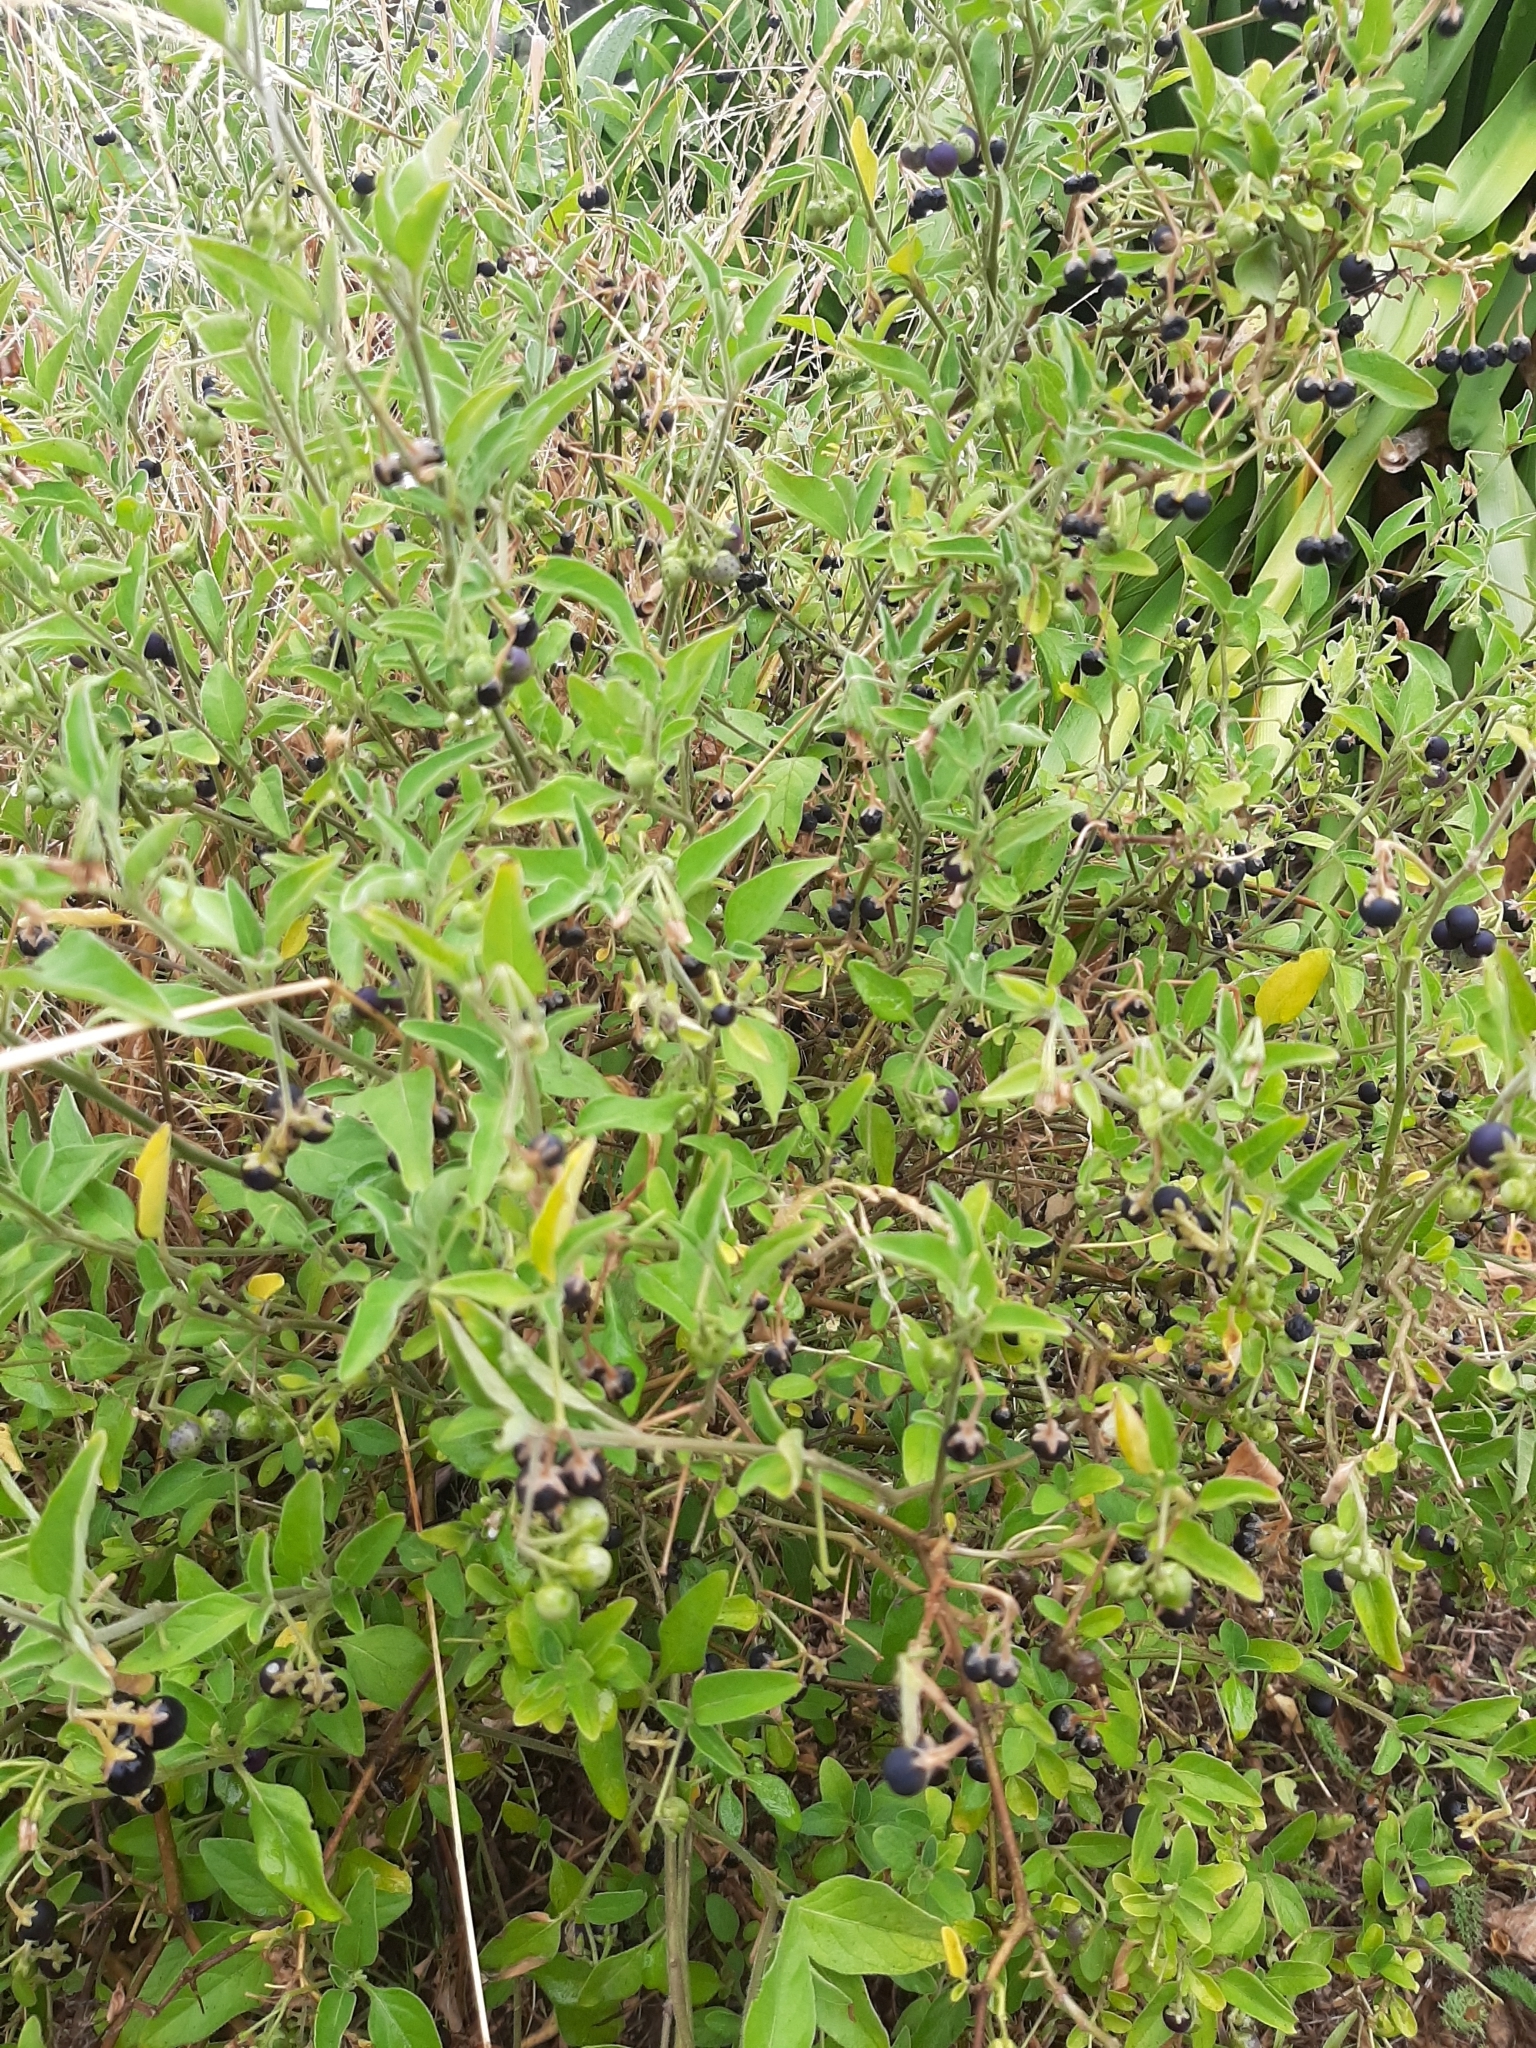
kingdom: Plantae
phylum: Tracheophyta
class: Magnoliopsida
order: Solanales
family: Solanaceae
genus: Solanum
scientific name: Solanum chenopodioides
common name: Tall nightshade
